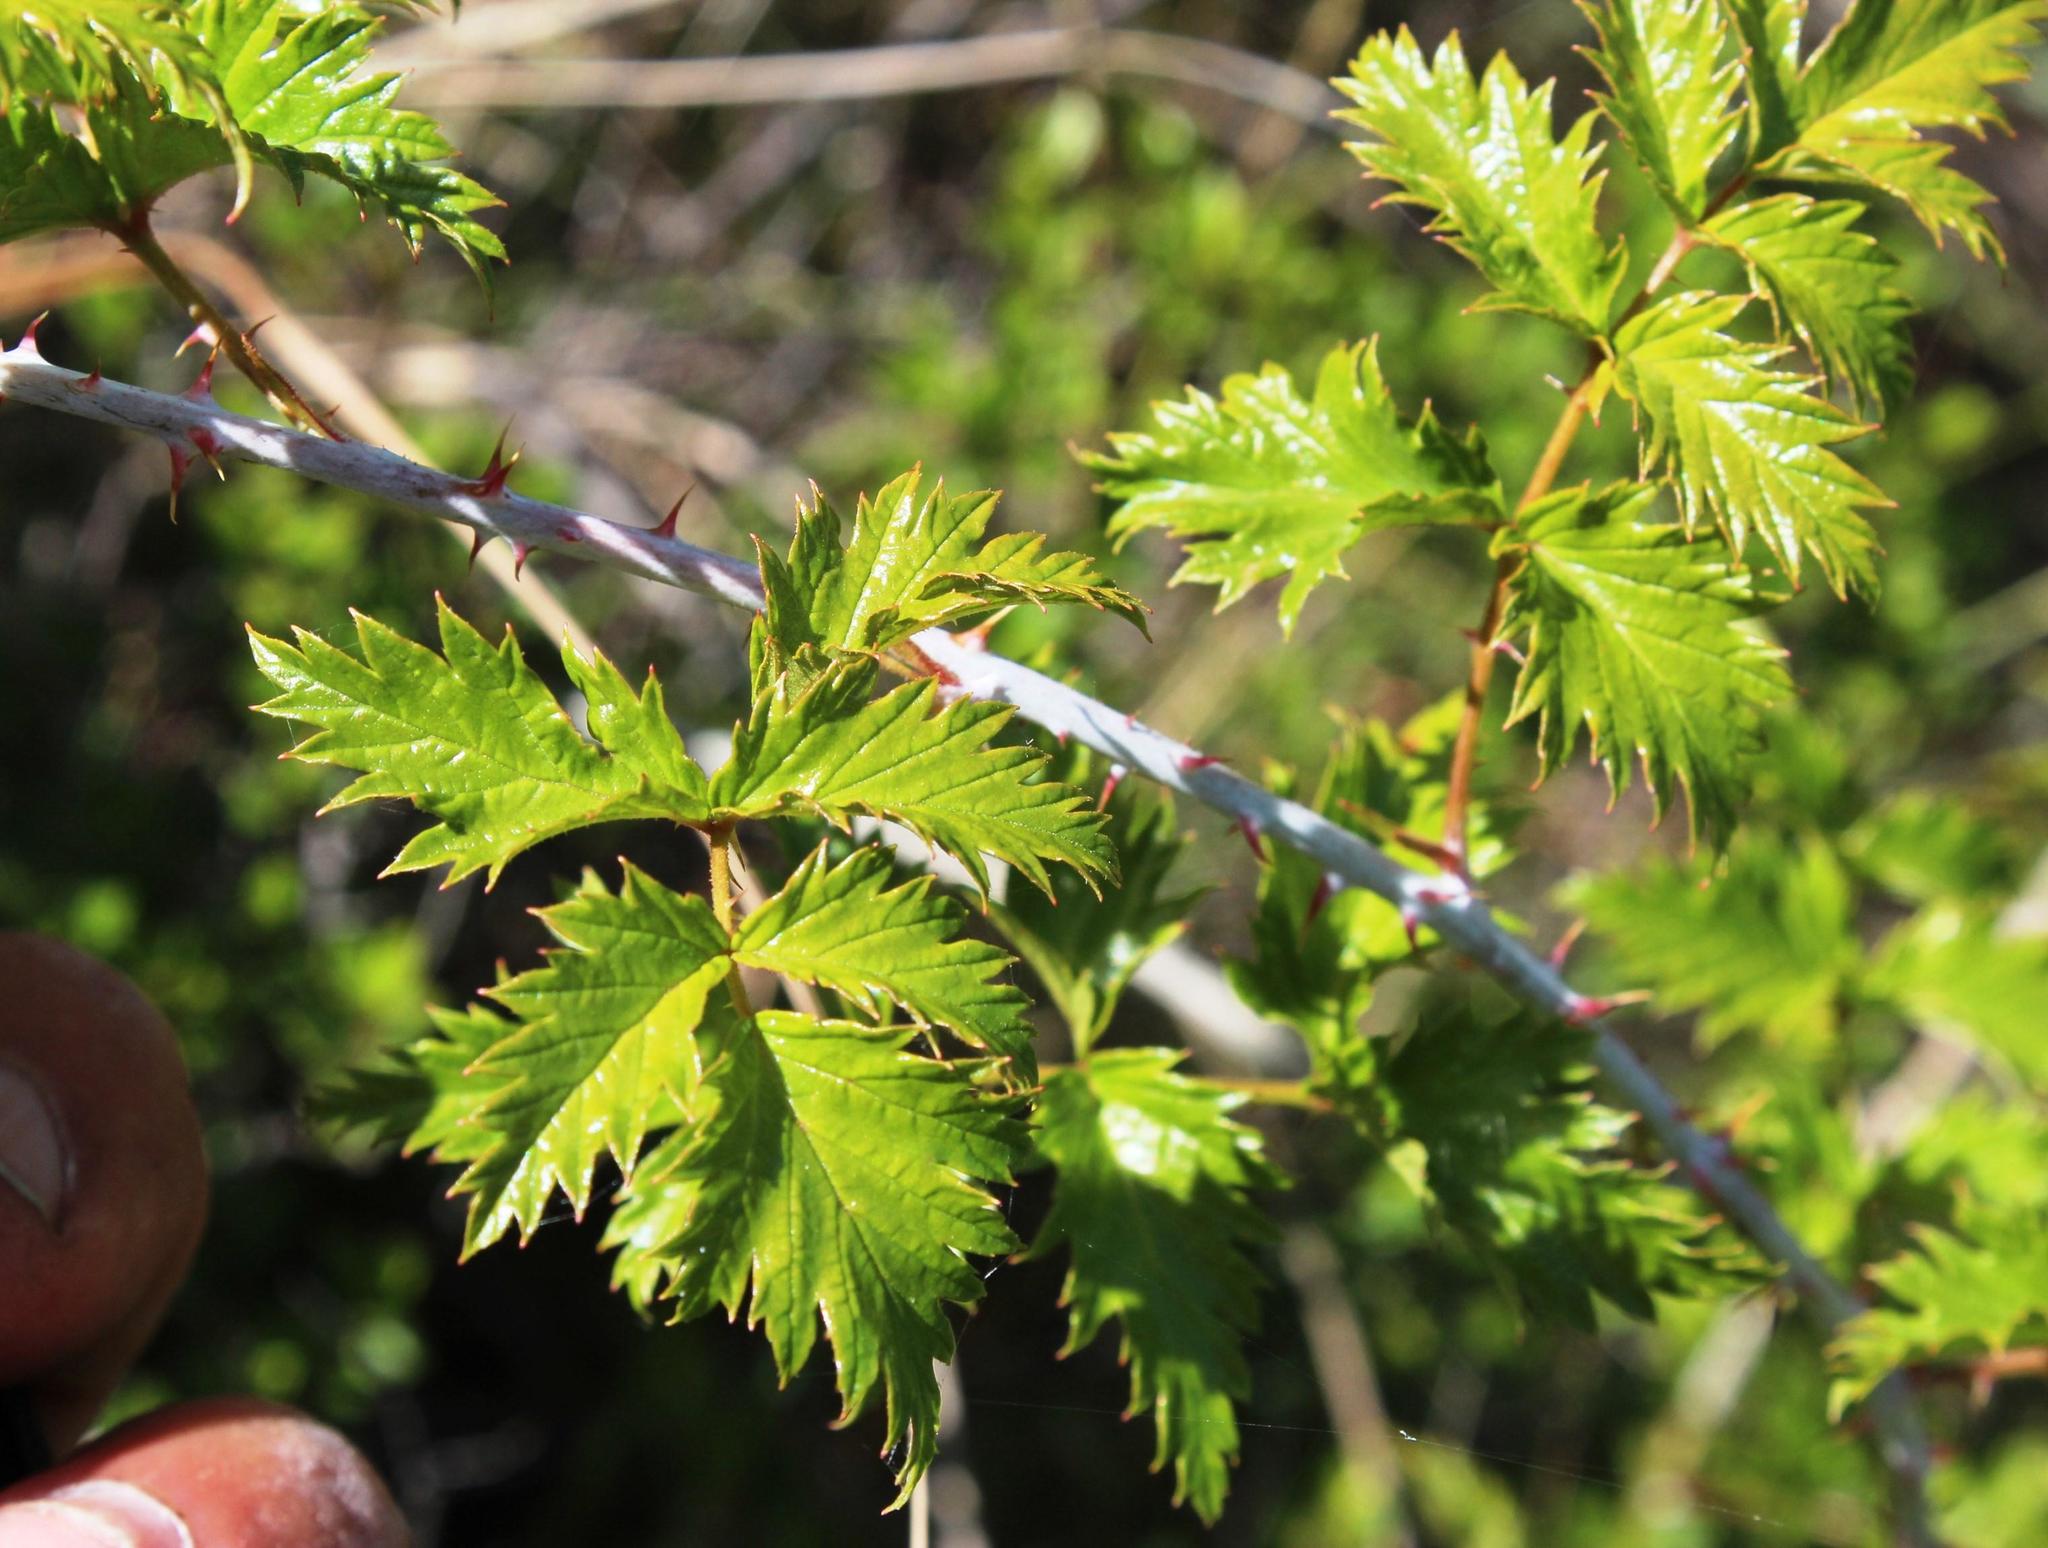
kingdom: Plantae
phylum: Tracheophyta
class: Magnoliopsida
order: Rosales
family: Rosaceae
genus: Rubus
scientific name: Rubus ludwigii
